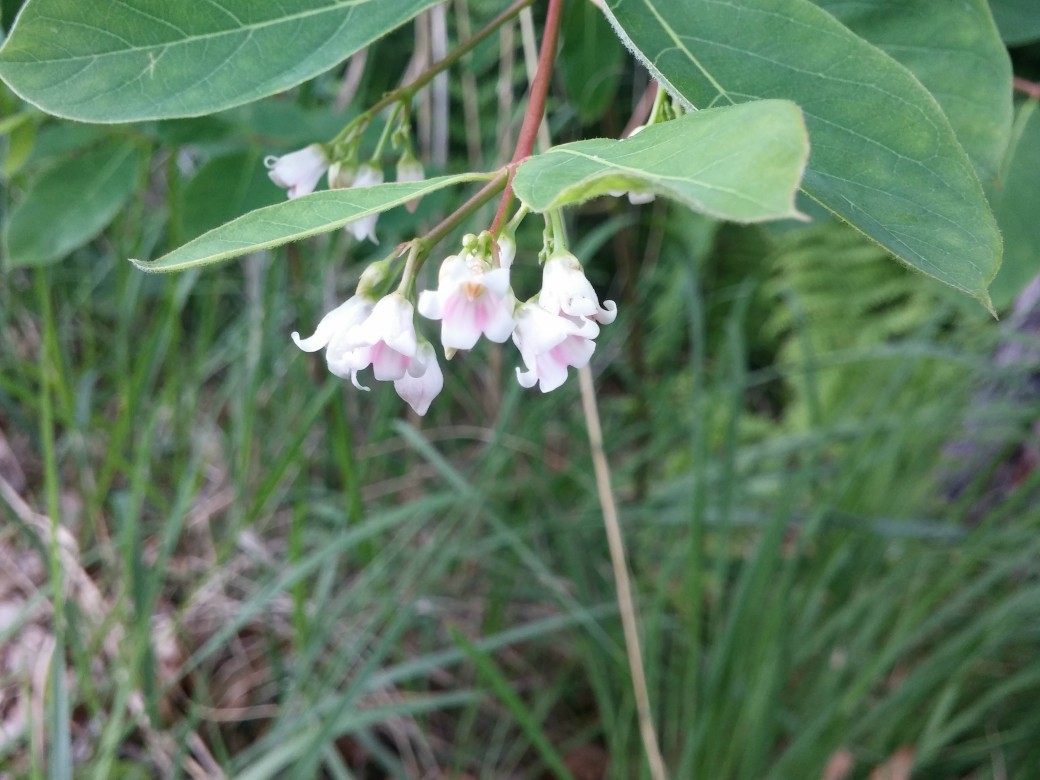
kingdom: Plantae
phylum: Tracheophyta
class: Magnoliopsida
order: Gentianales
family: Apocynaceae
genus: Apocynum
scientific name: Apocynum androsaemifolium
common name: Spreading dogbane
